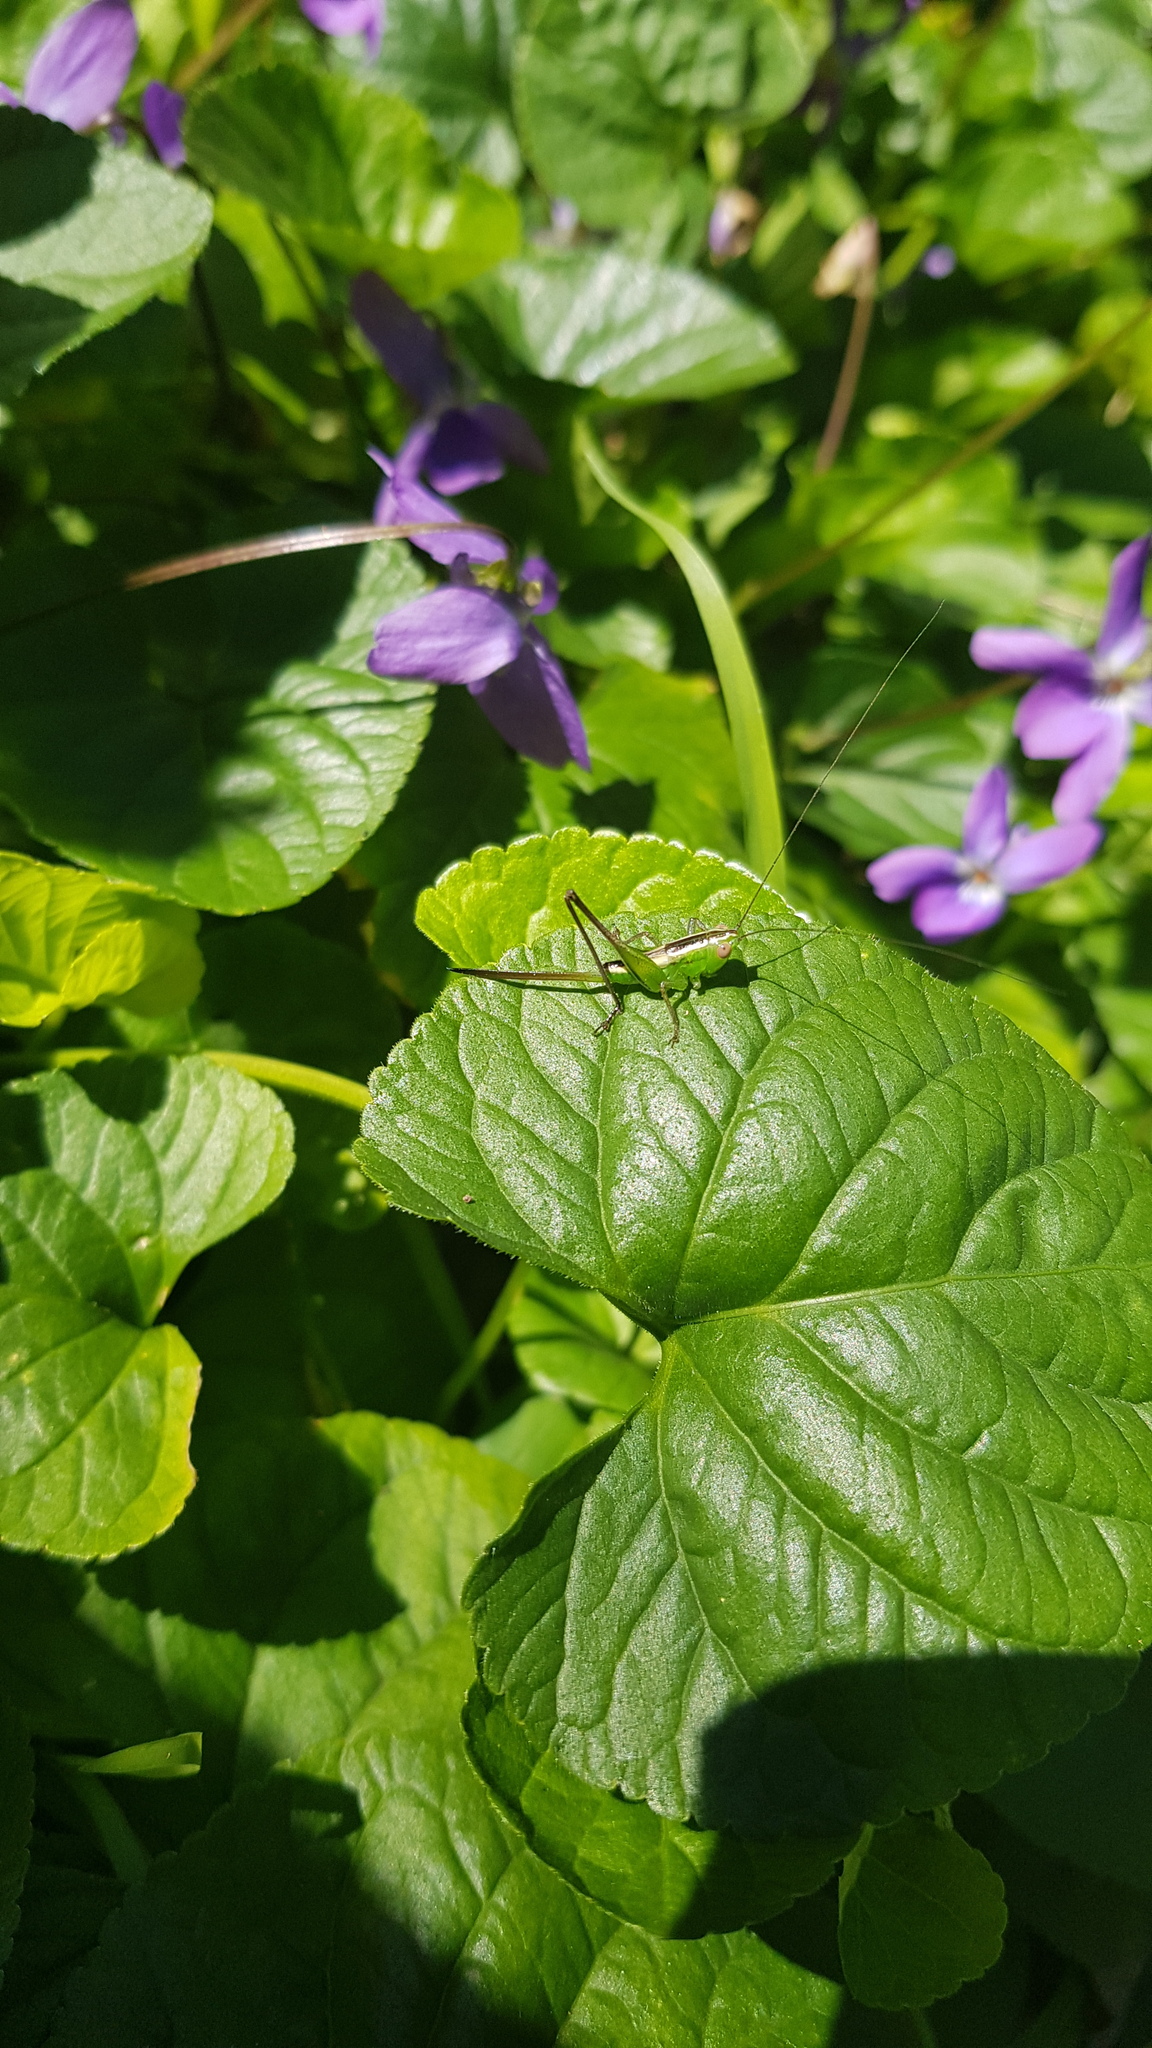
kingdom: Animalia
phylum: Arthropoda
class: Insecta
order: Orthoptera
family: Tettigoniidae
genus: Conocephalus
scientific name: Conocephalus semivittatus
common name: Blackish meadow katydid
